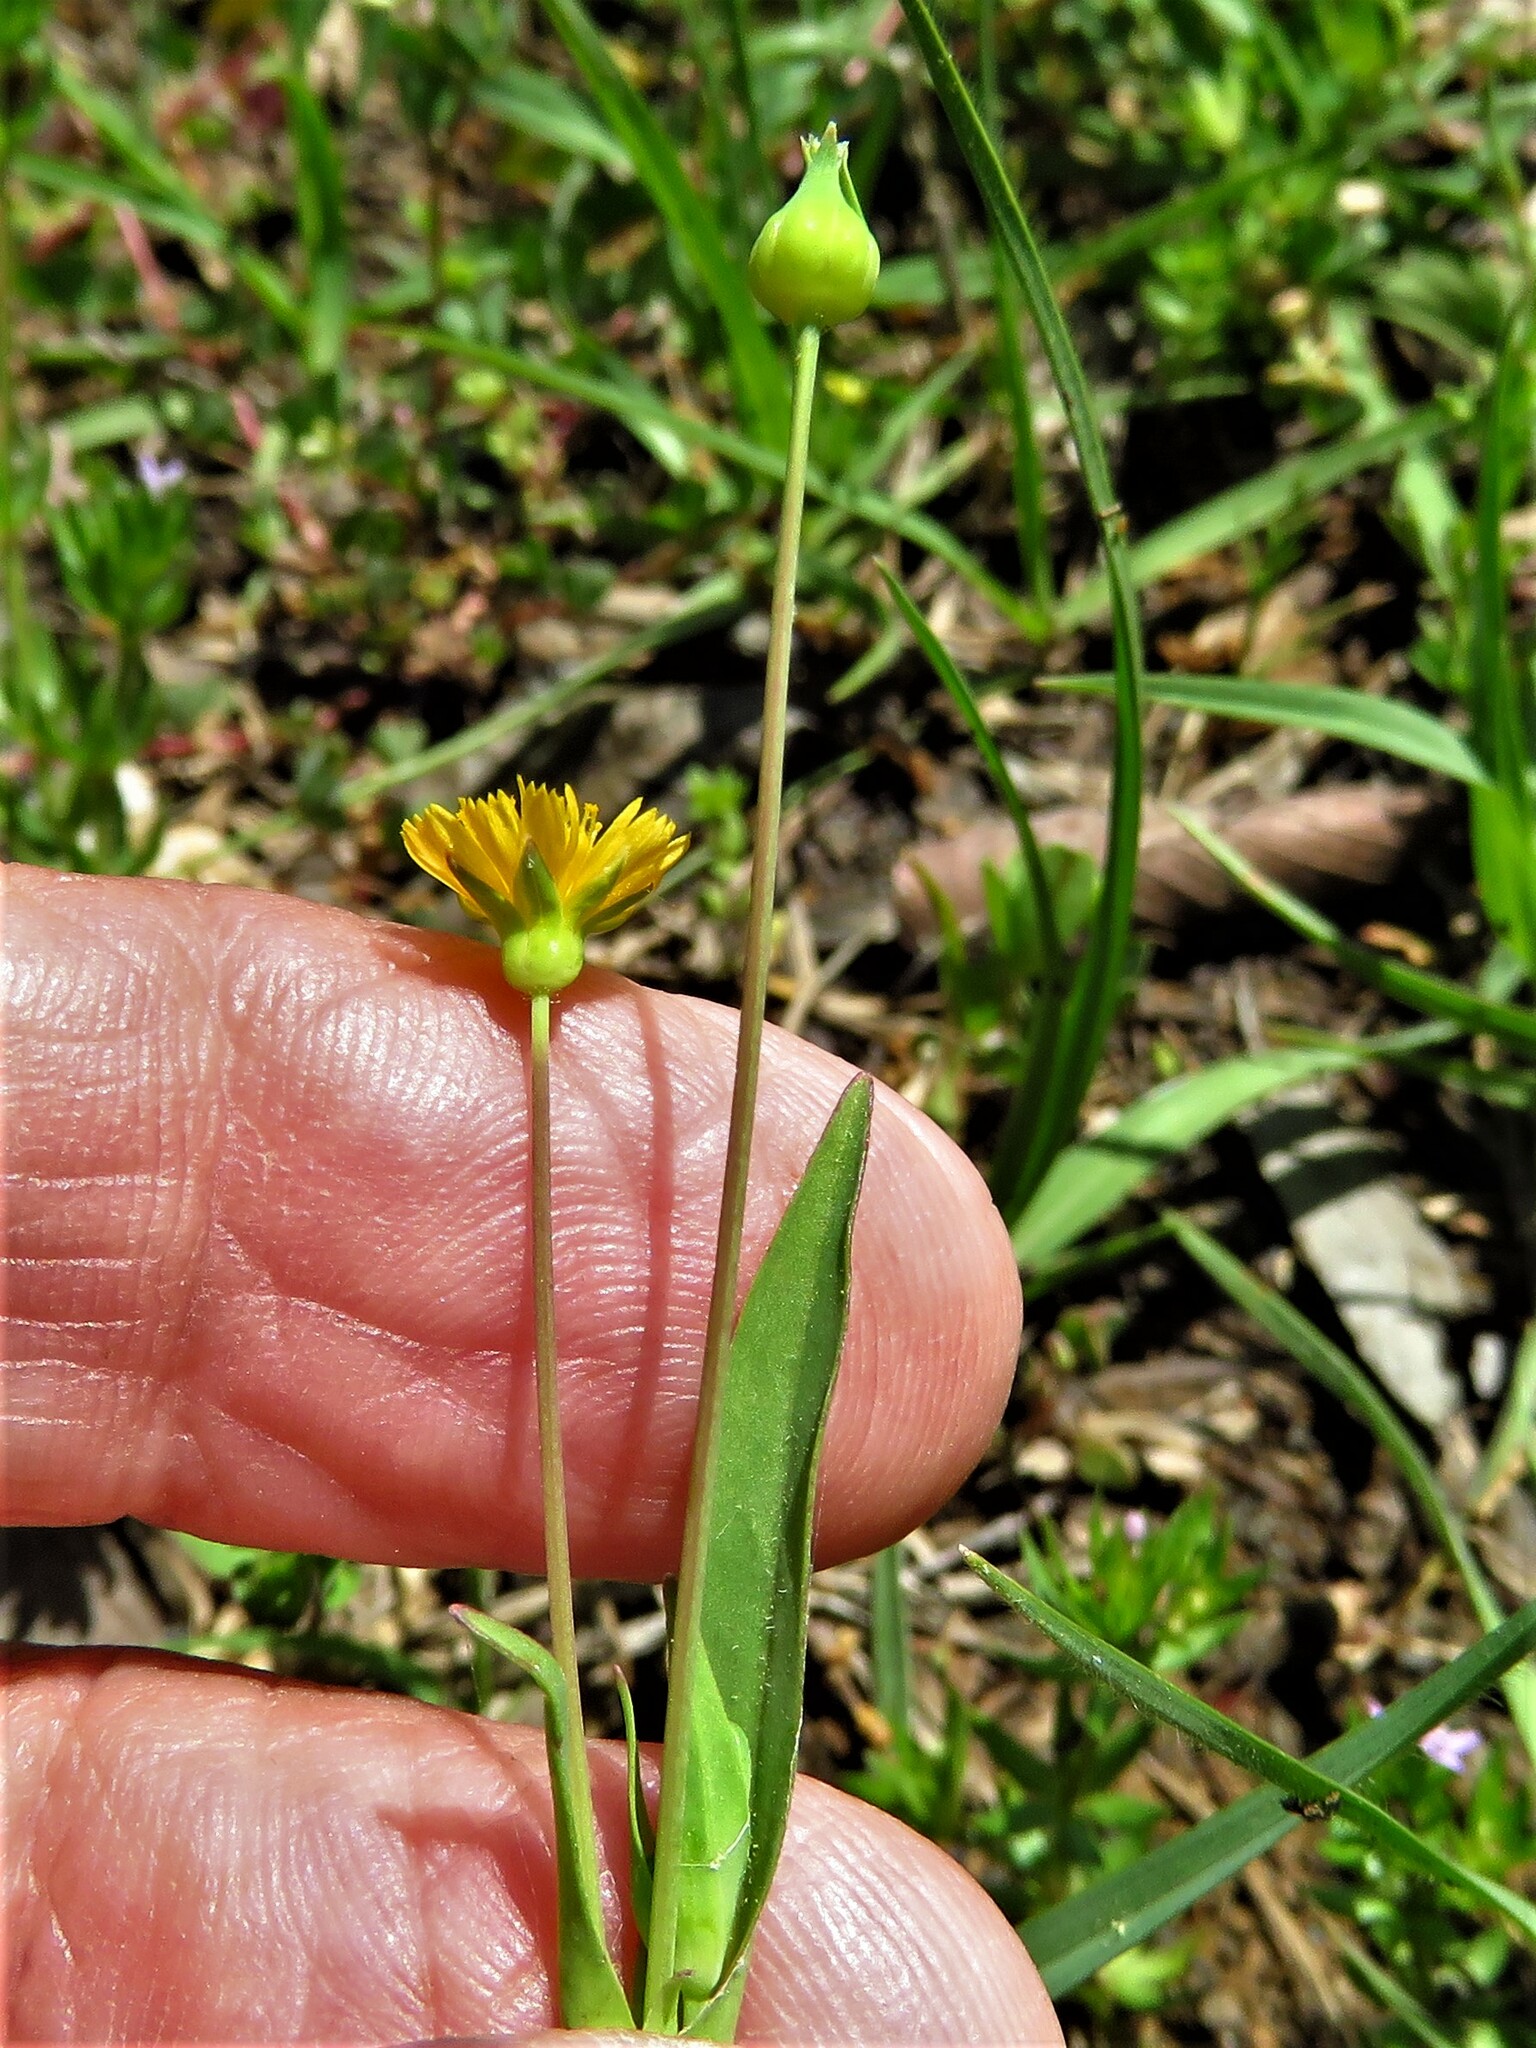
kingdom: Plantae
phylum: Tracheophyta
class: Magnoliopsida
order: Asterales
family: Asteraceae
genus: Krigia
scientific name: Krigia cespitosa
